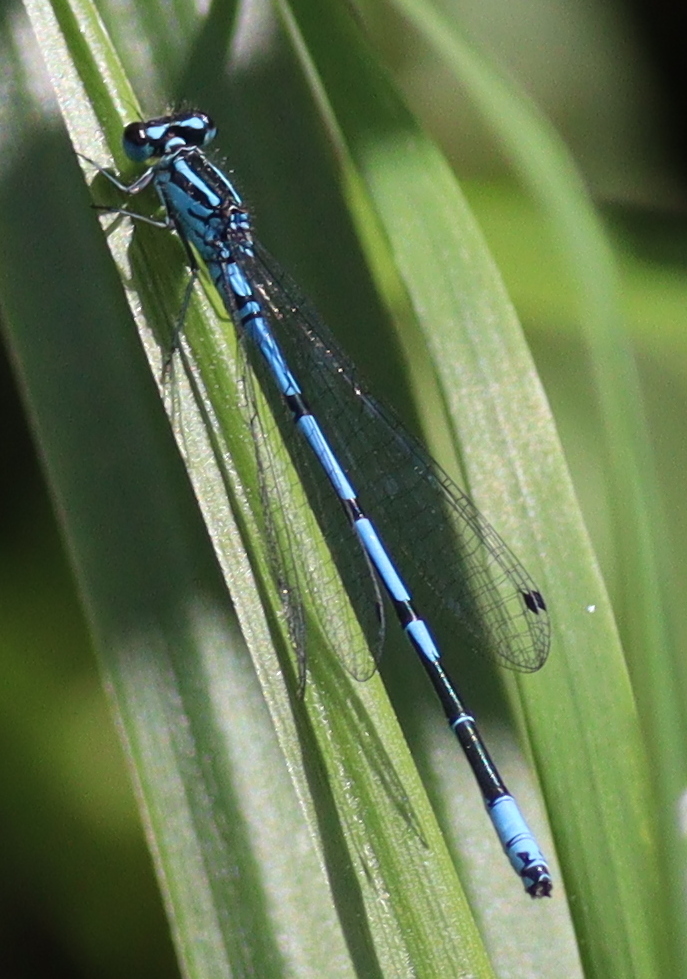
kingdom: Animalia
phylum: Arthropoda
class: Insecta
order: Odonata
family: Coenagrionidae
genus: Coenagrion
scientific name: Coenagrion puella
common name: Azure damselfly
